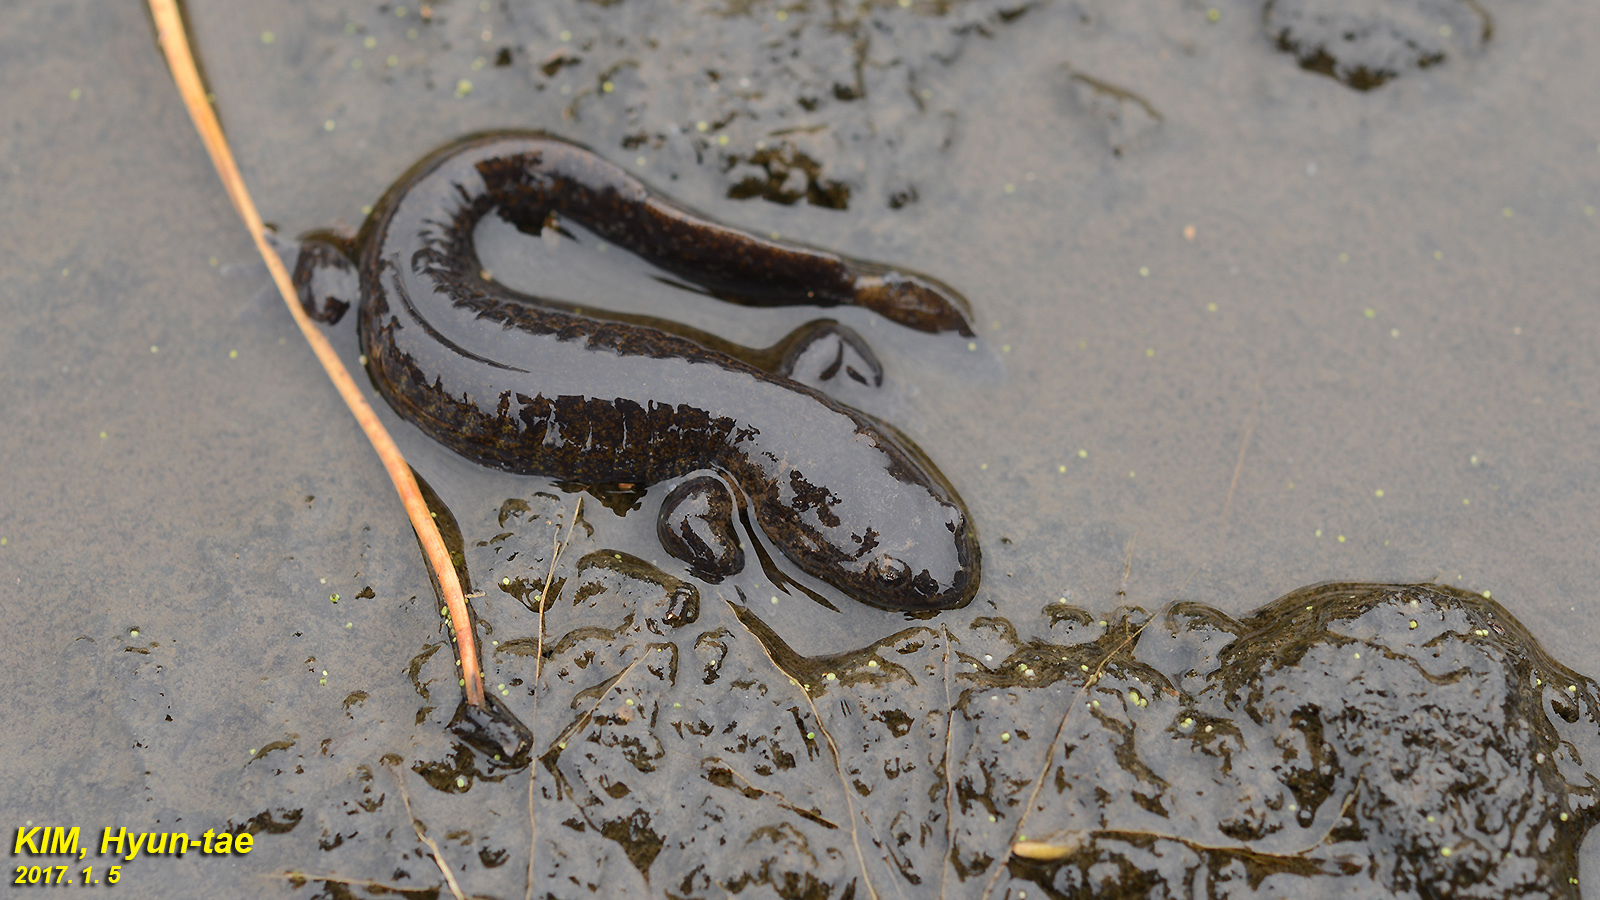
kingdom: Animalia
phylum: Chordata
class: Amphibia
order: Caudata
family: Hynobiidae
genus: Hynobius
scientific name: Hynobius quelpaertensis
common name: Cheju salamander
